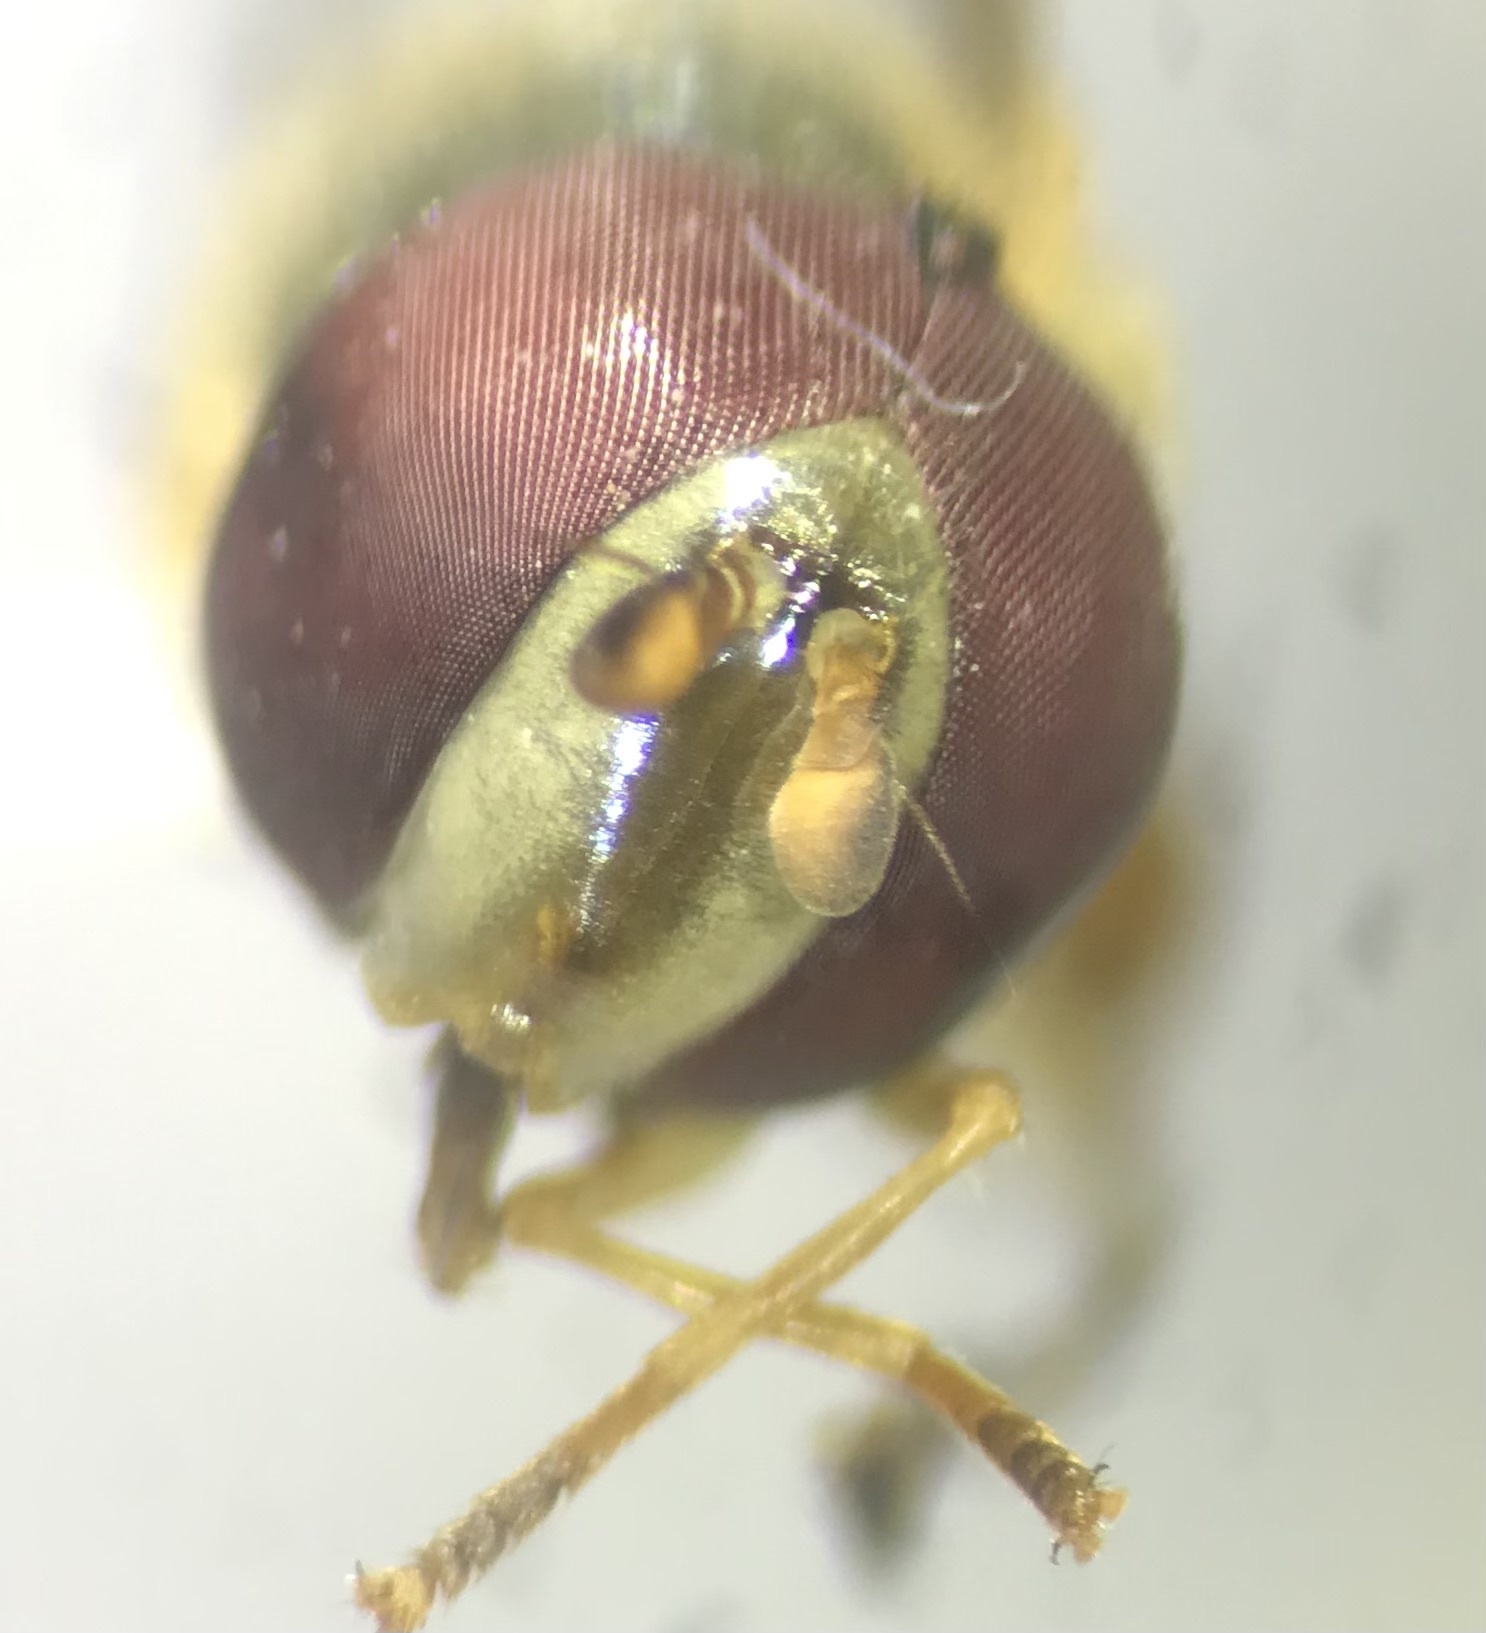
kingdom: Animalia
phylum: Arthropoda
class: Insecta
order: Diptera
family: Syrphidae
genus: Allograpta
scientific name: Allograpta obliqua
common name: Common oblique syrphid
